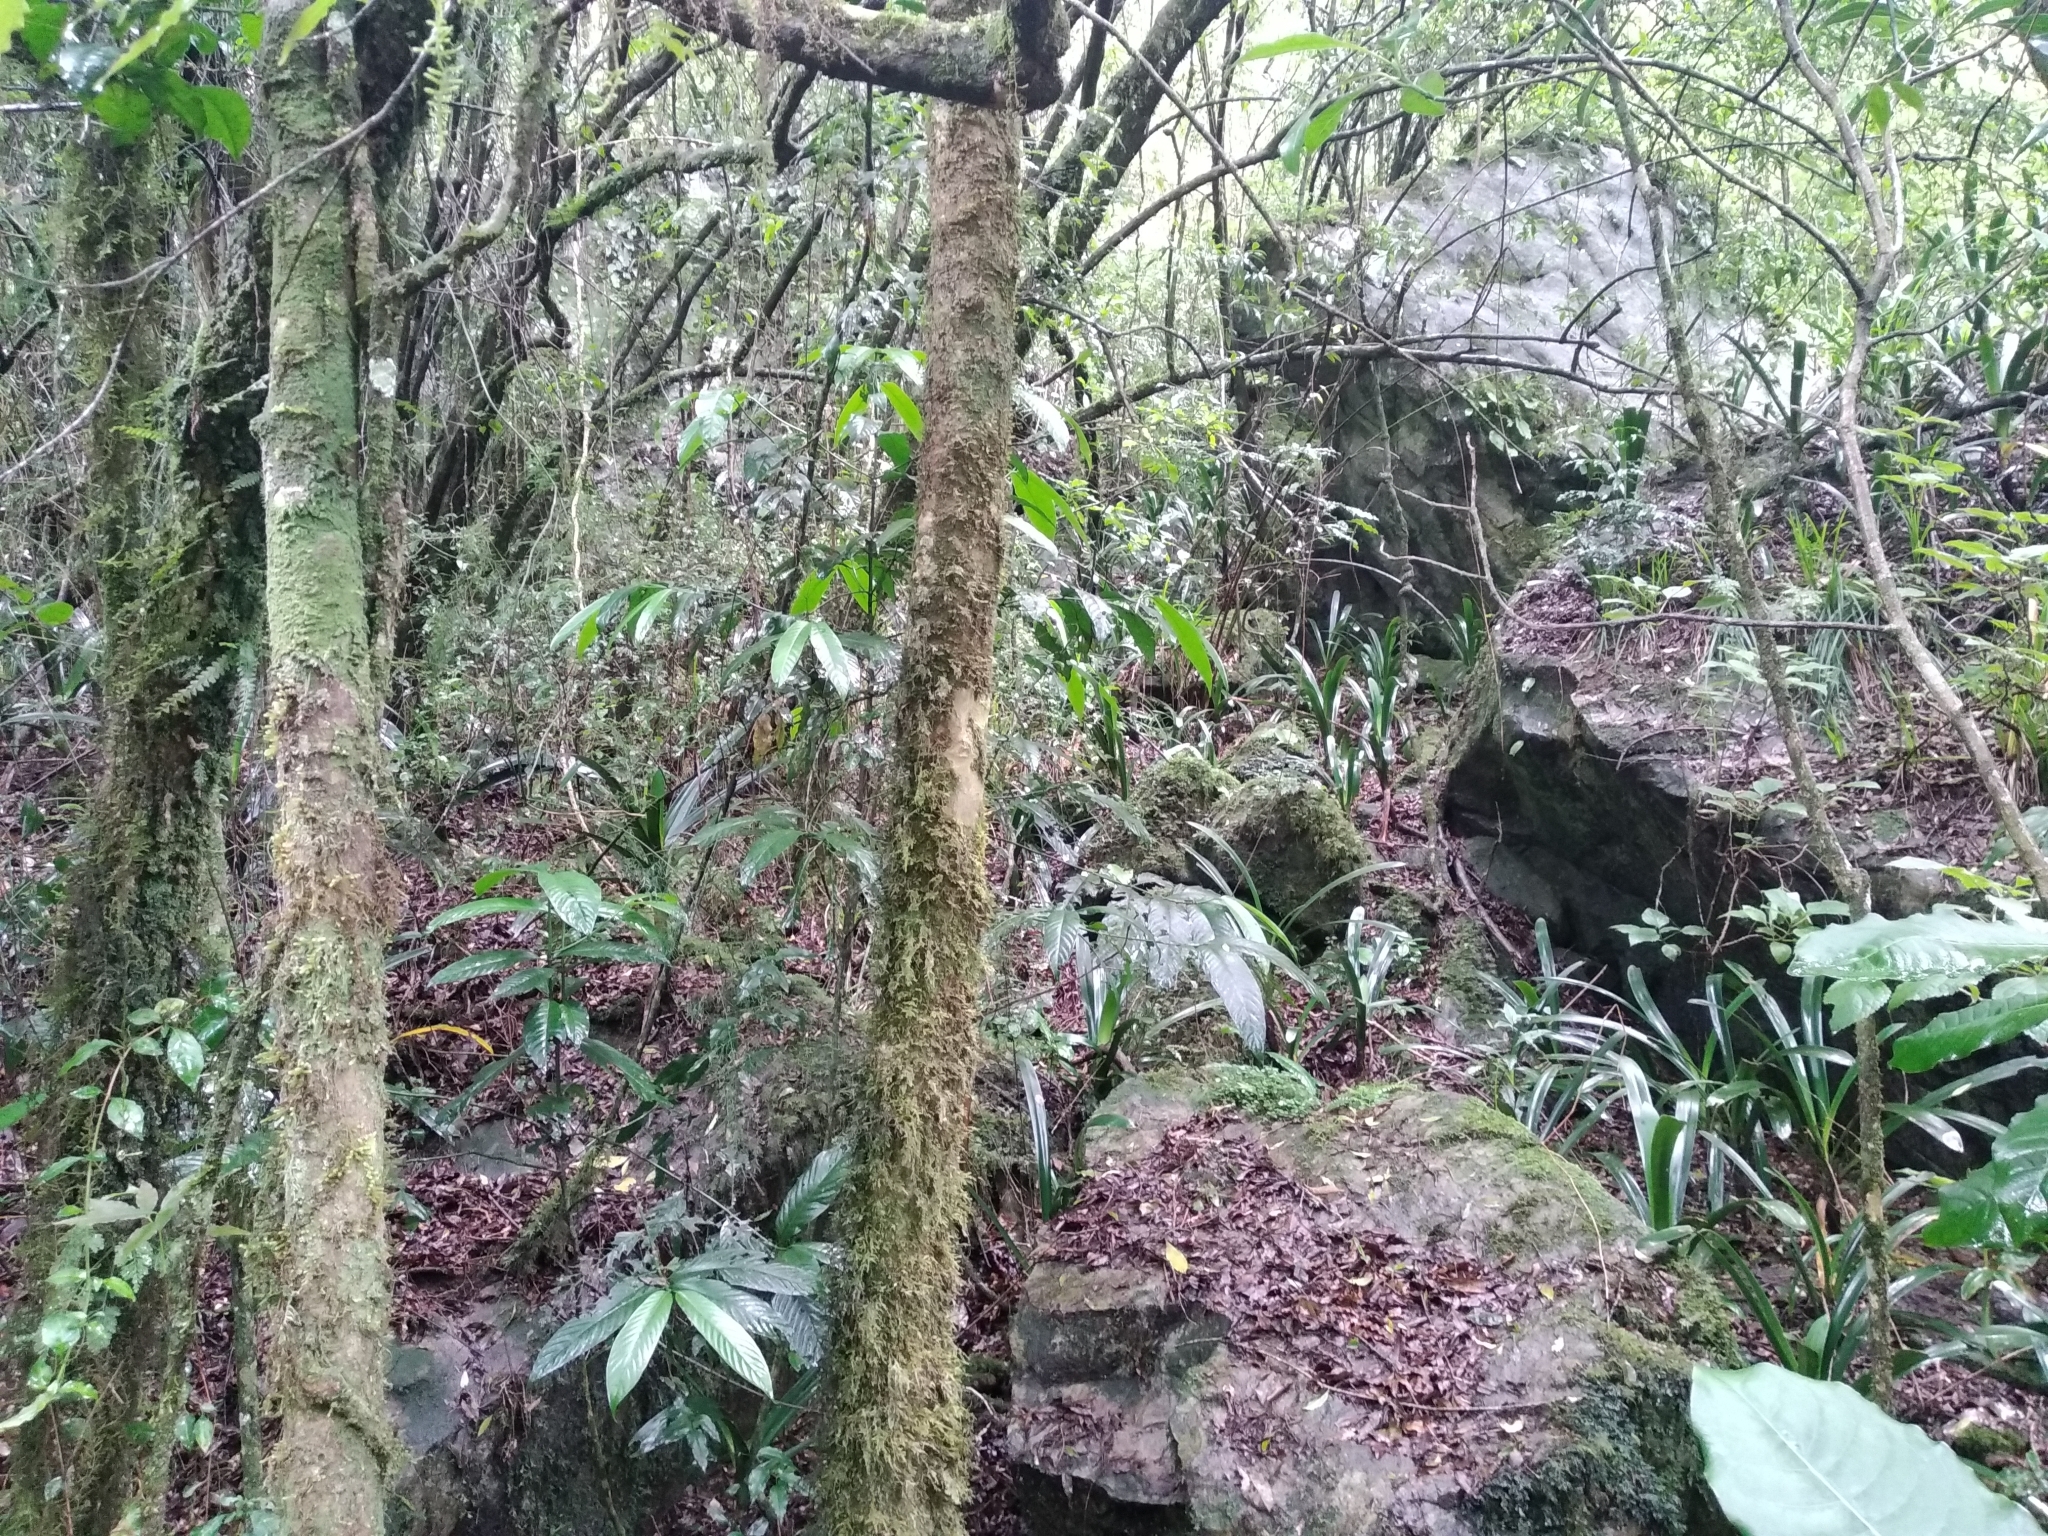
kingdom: Plantae
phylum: Tracheophyta
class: Liliopsida
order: Asparagales
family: Amaryllidaceae
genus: Clivia
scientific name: Clivia caulescens
